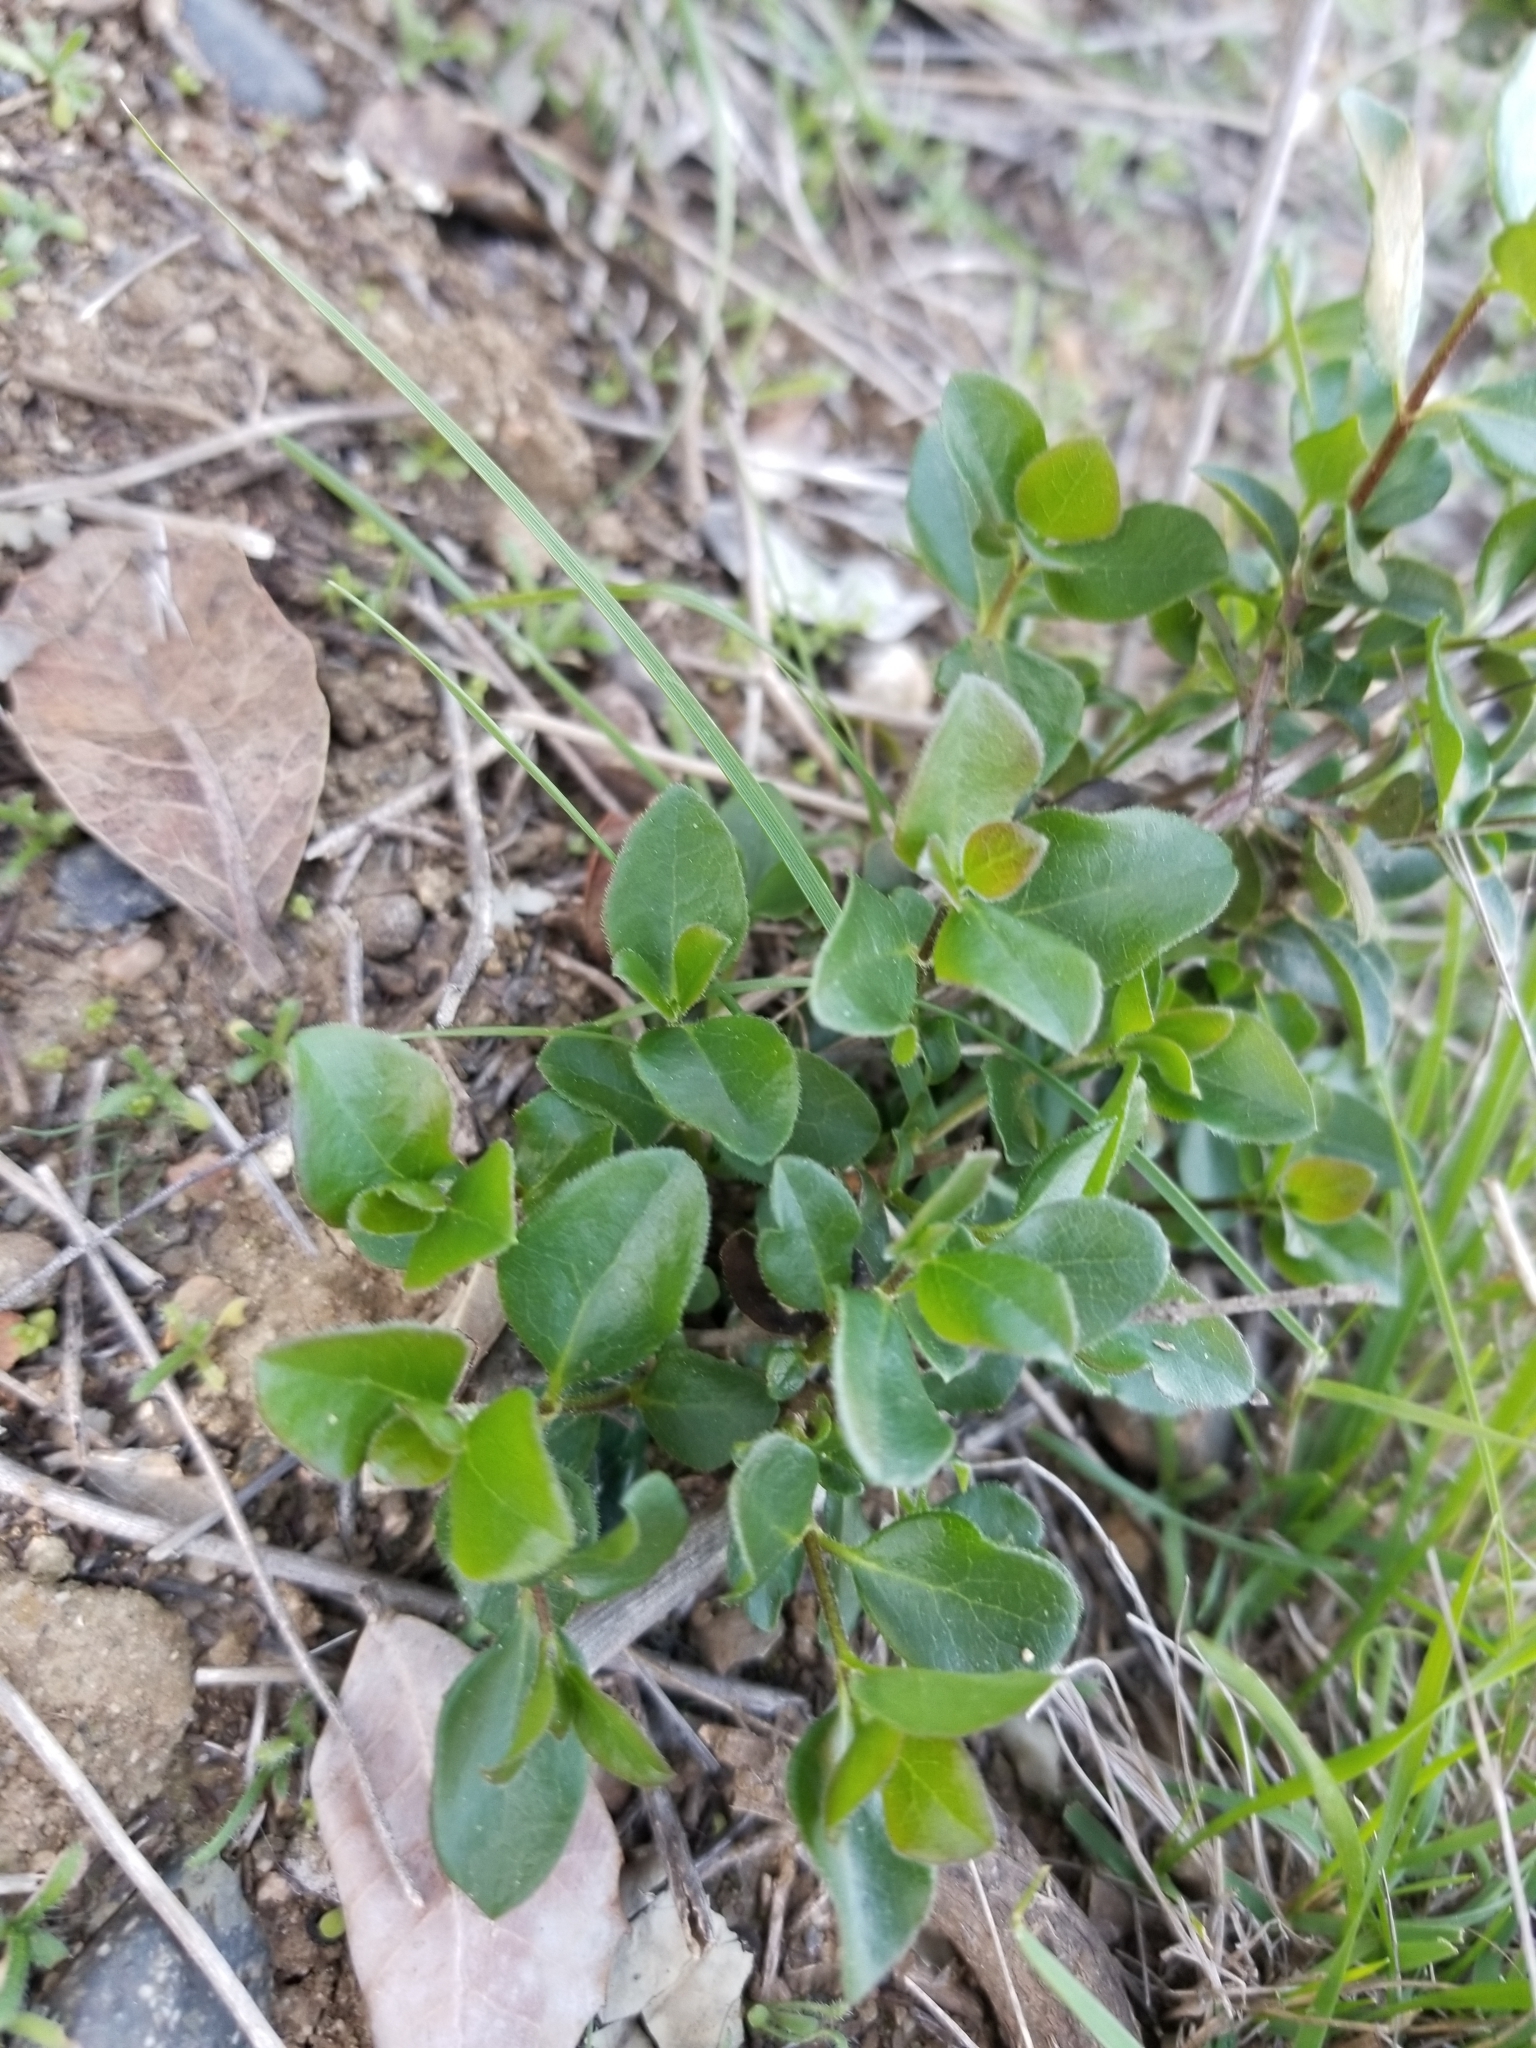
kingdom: Plantae
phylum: Tracheophyta
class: Magnoliopsida
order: Dipsacales
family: Caprifoliaceae
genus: Lonicera
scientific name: Lonicera subspicata
